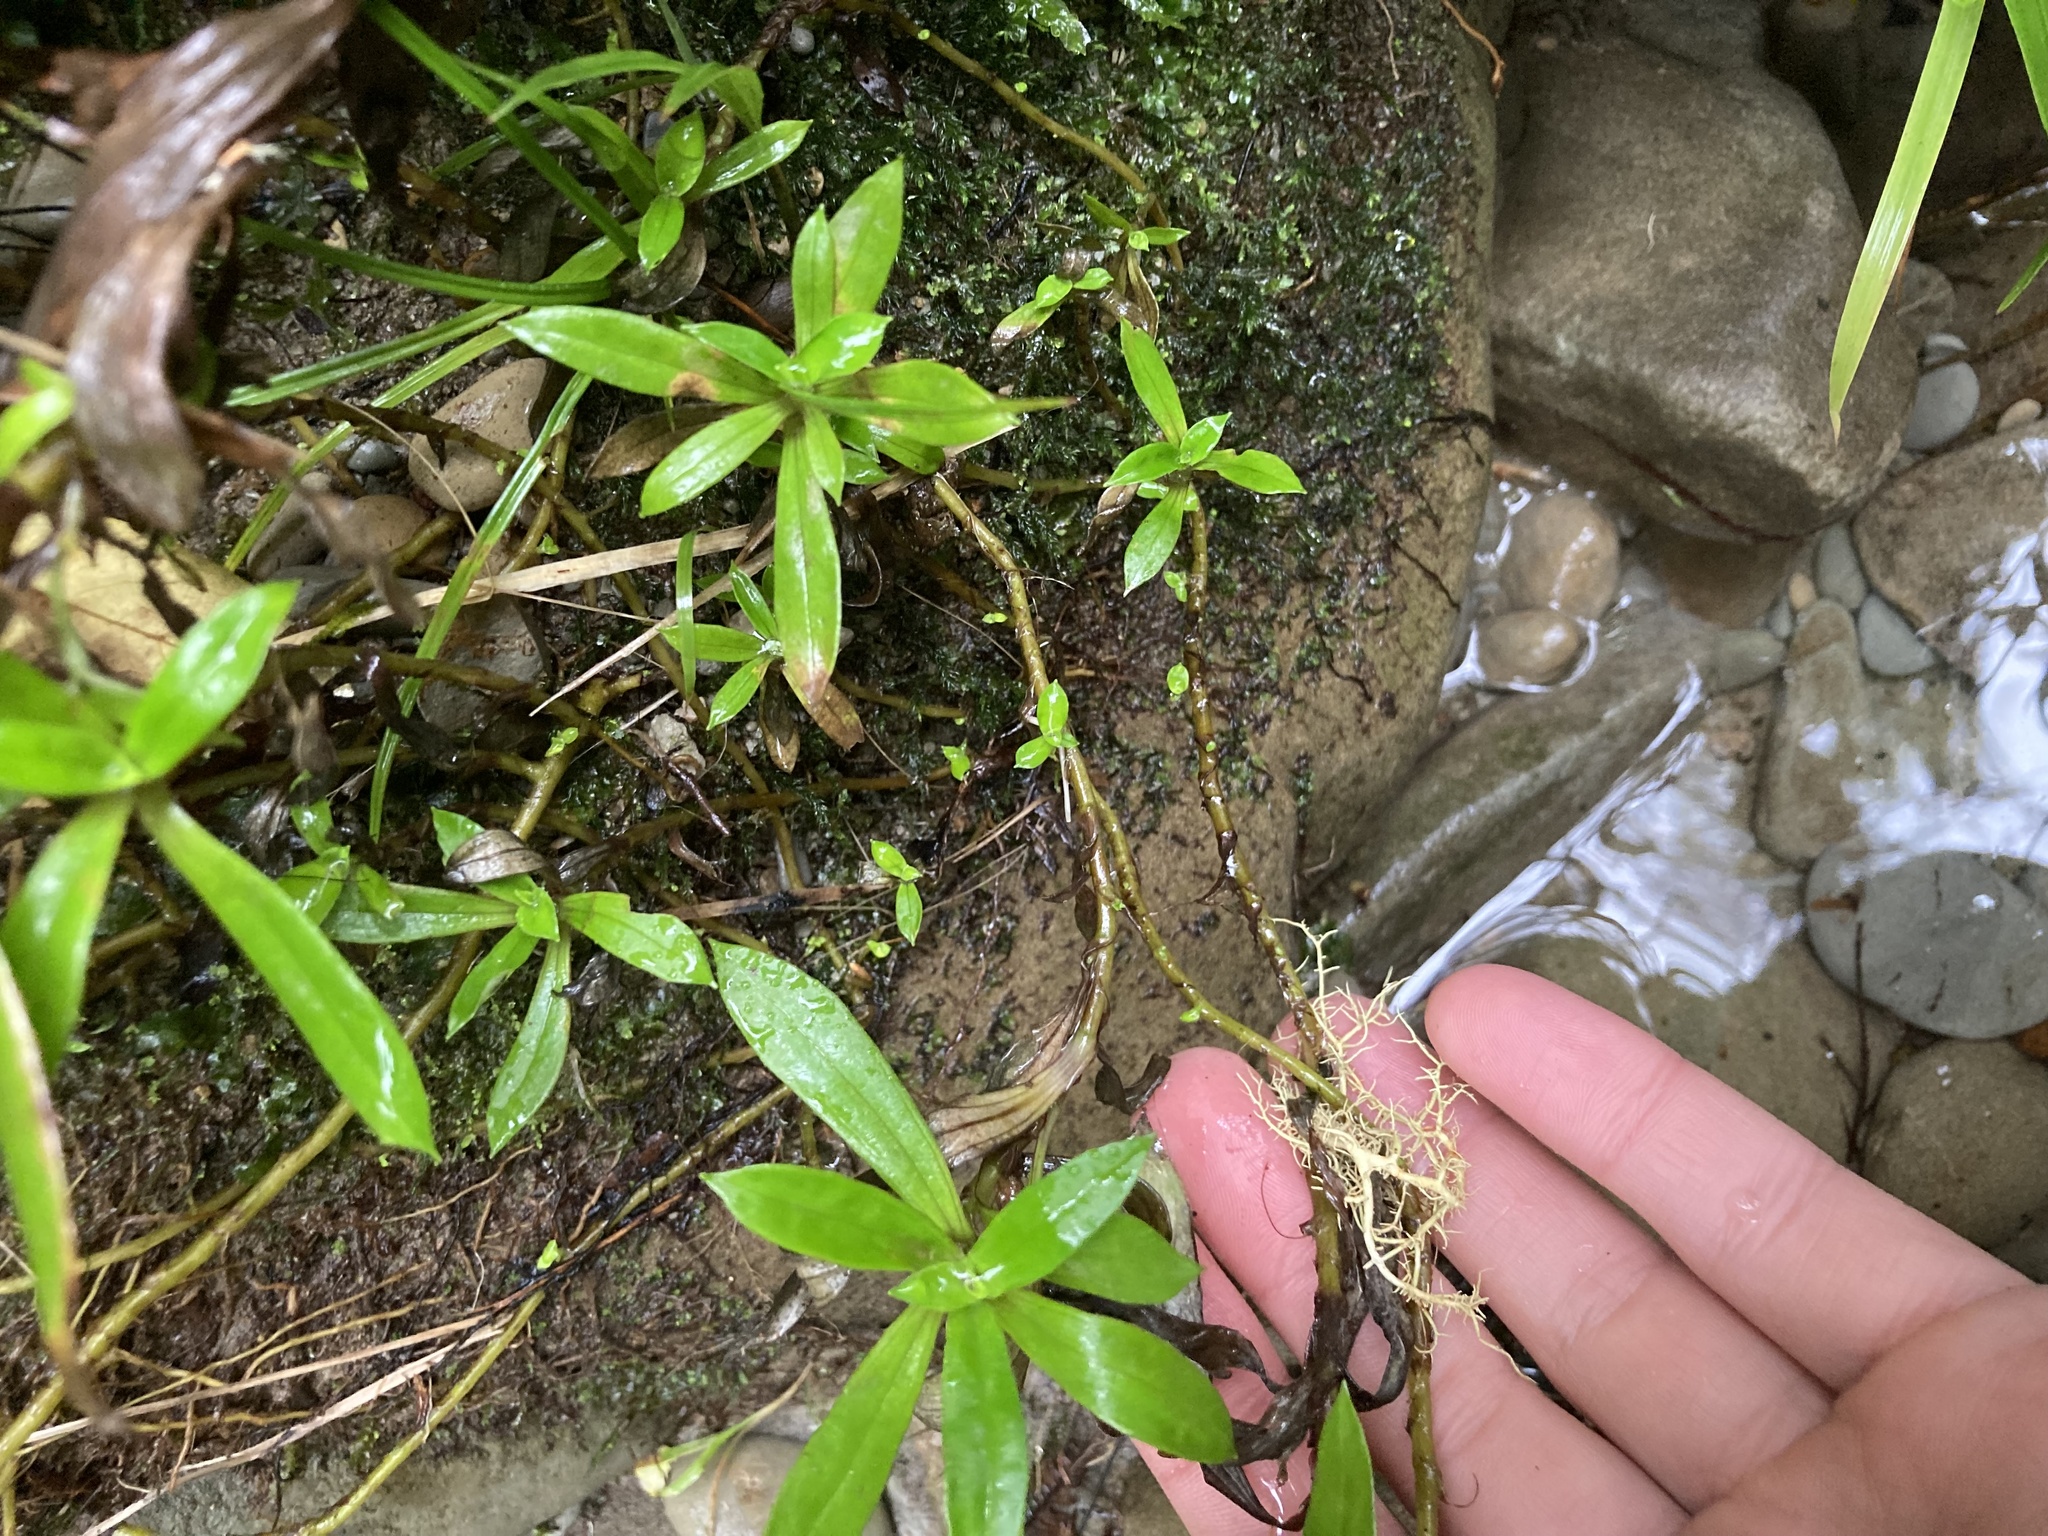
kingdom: Plantae
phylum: Tracheophyta
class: Magnoliopsida
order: Asterales
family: Asteraceae
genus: Anaphalioides
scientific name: Anaphalioides trinervis
